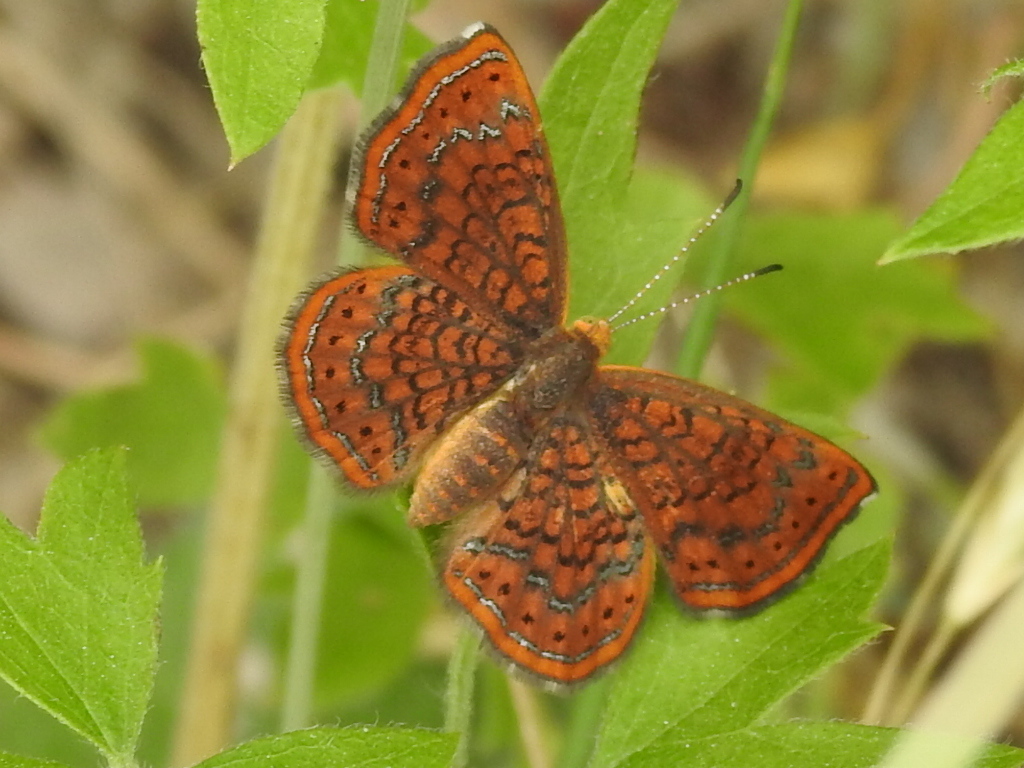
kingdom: Animalia
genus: Calephelis
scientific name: Calephelis perditalis
